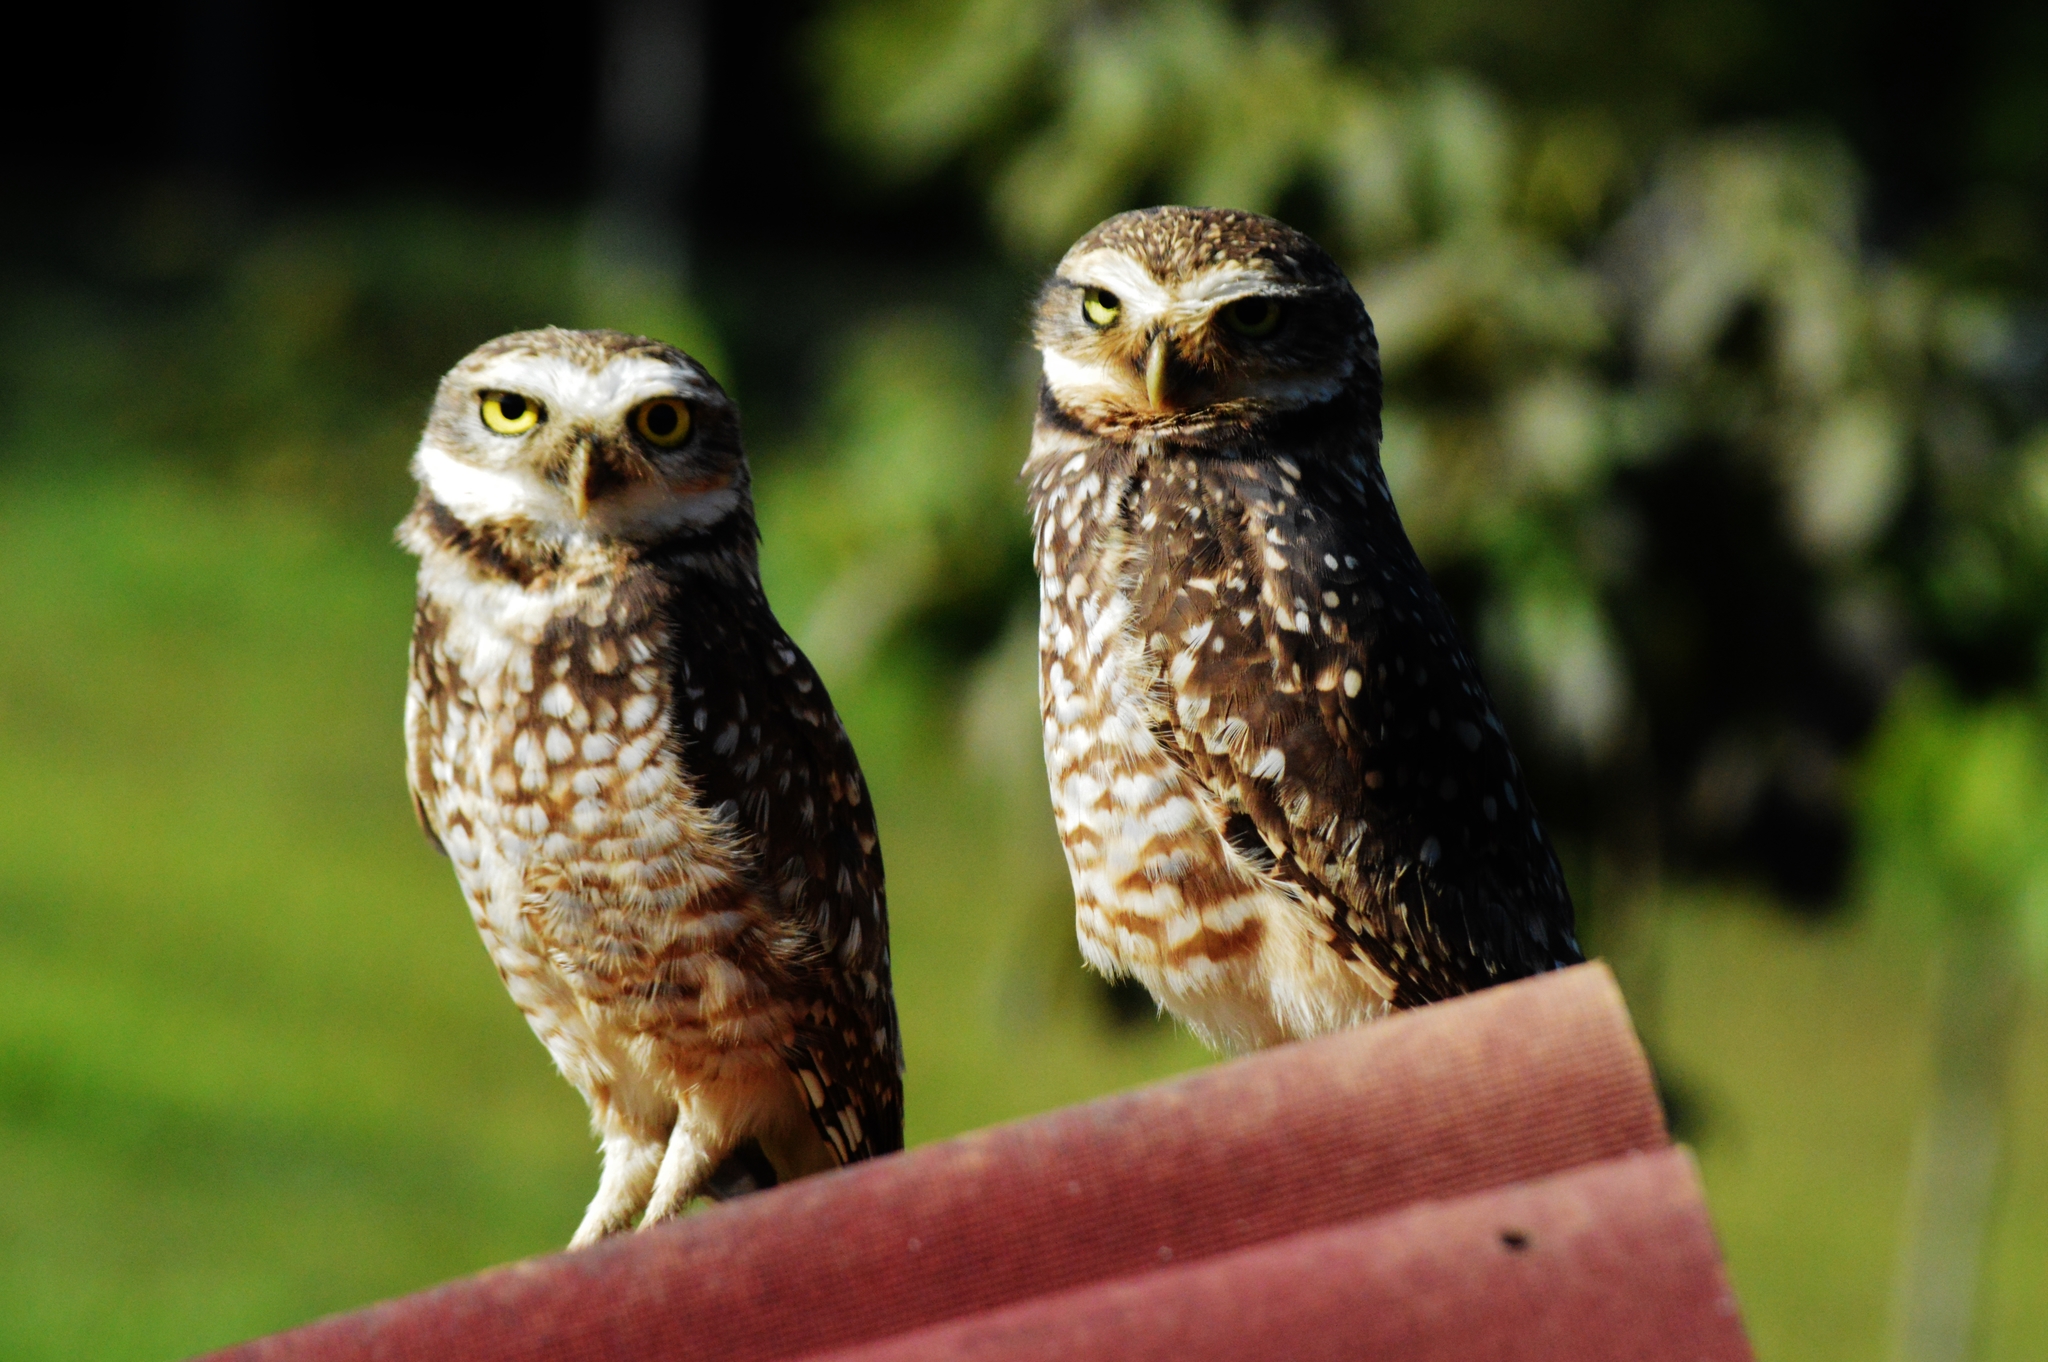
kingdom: Animalia
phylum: Chordata
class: Aves
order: Strigiformes
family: Strigidae
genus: Athene
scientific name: Athene cunicularia
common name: Burrowing owl
